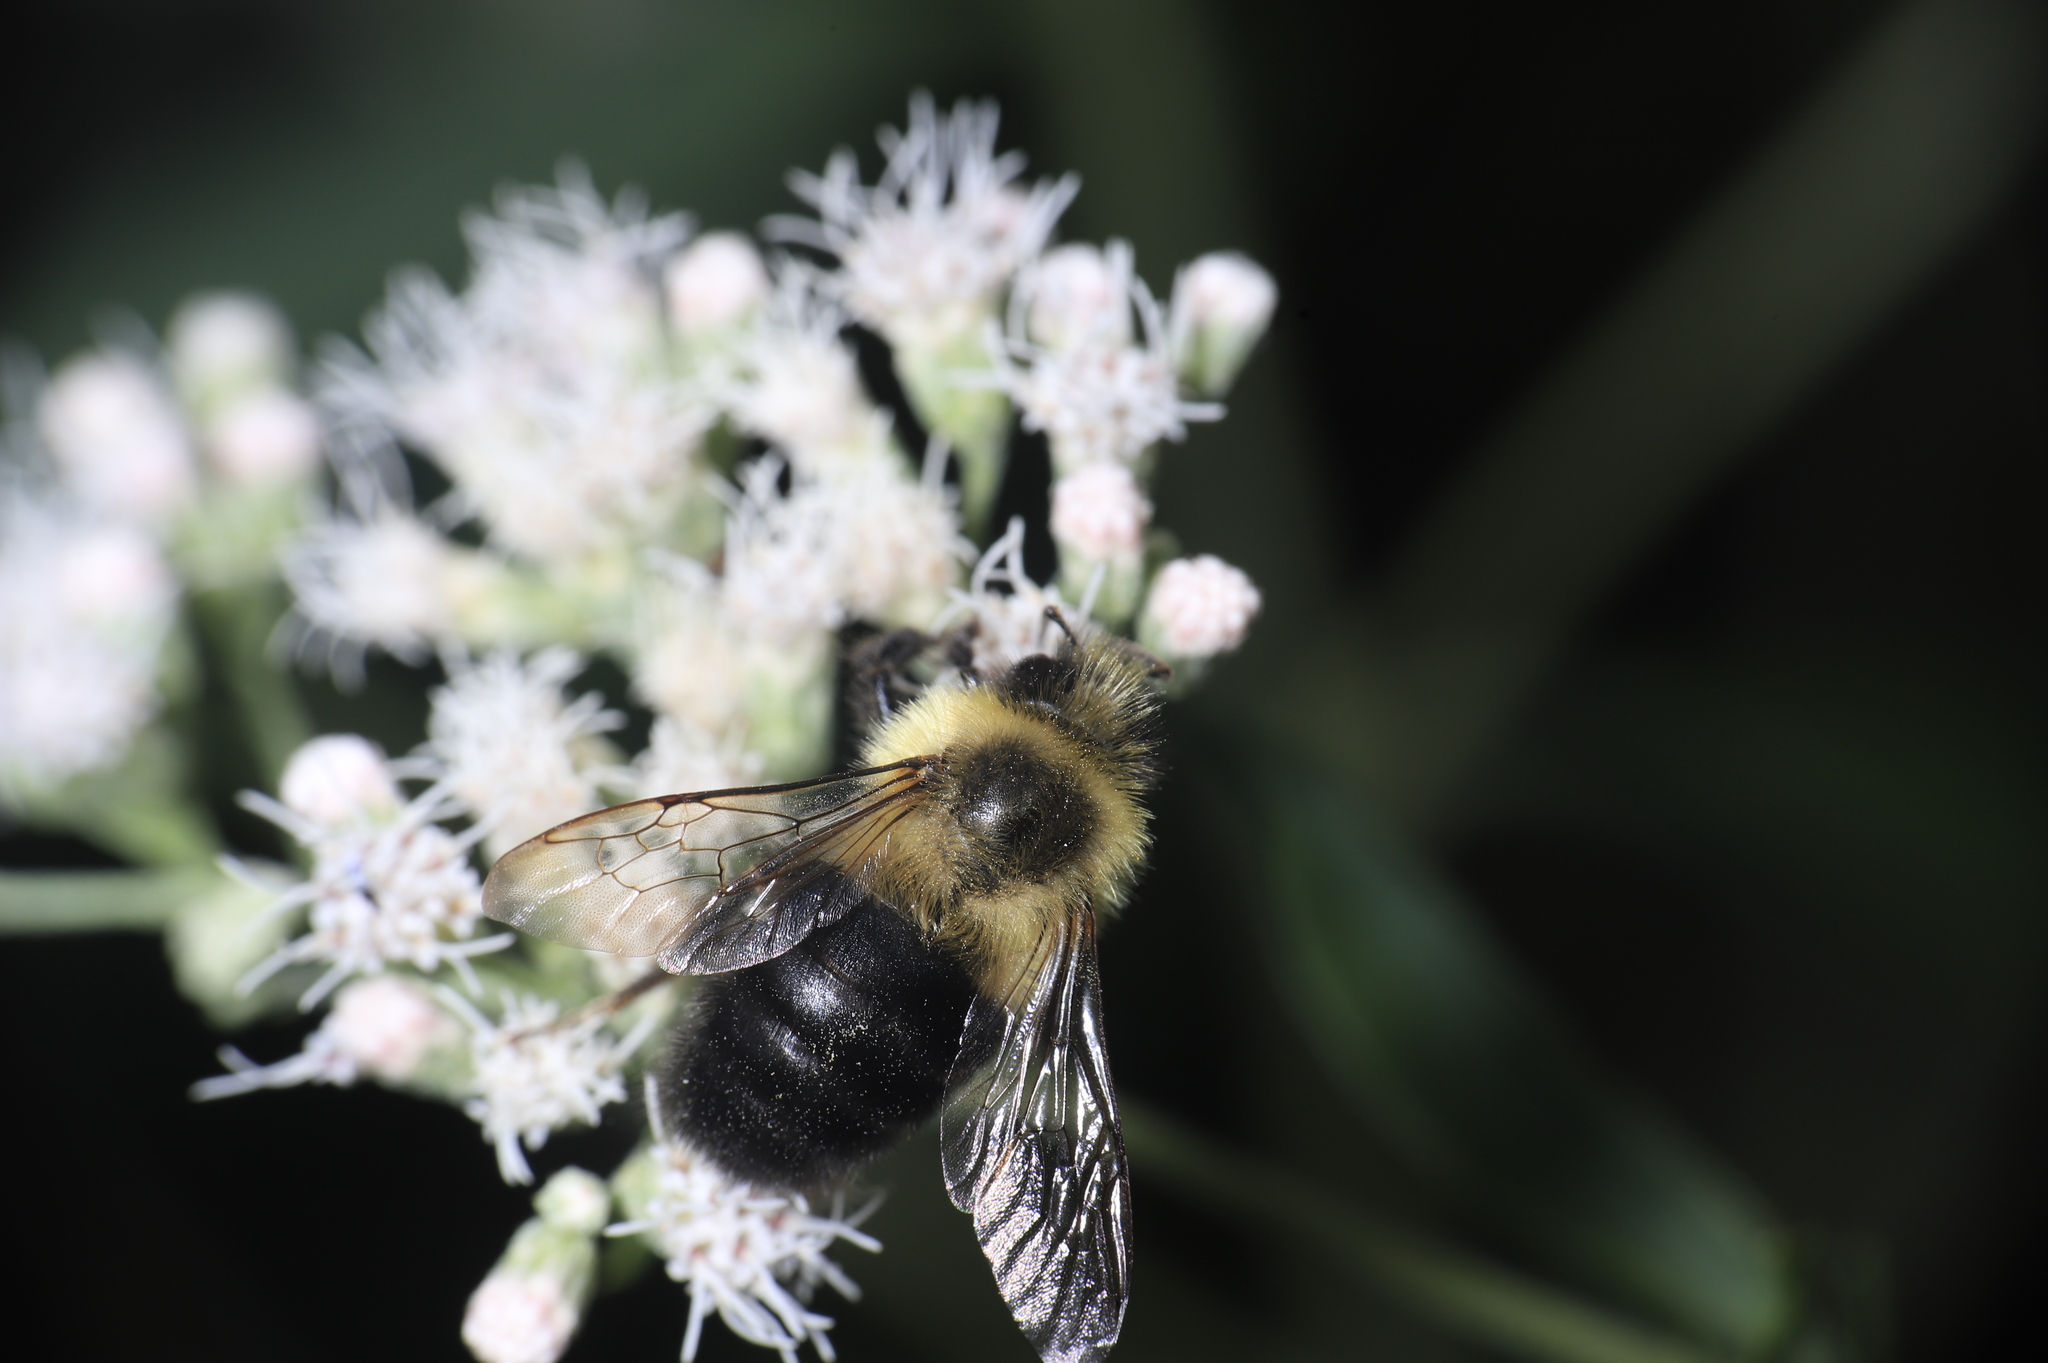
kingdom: Animalia
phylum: Arthropoda
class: Insecta
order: Hymenoptera
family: Apidae
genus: Bombus
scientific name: Bombus impatiens
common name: Common eastern bumble bee
